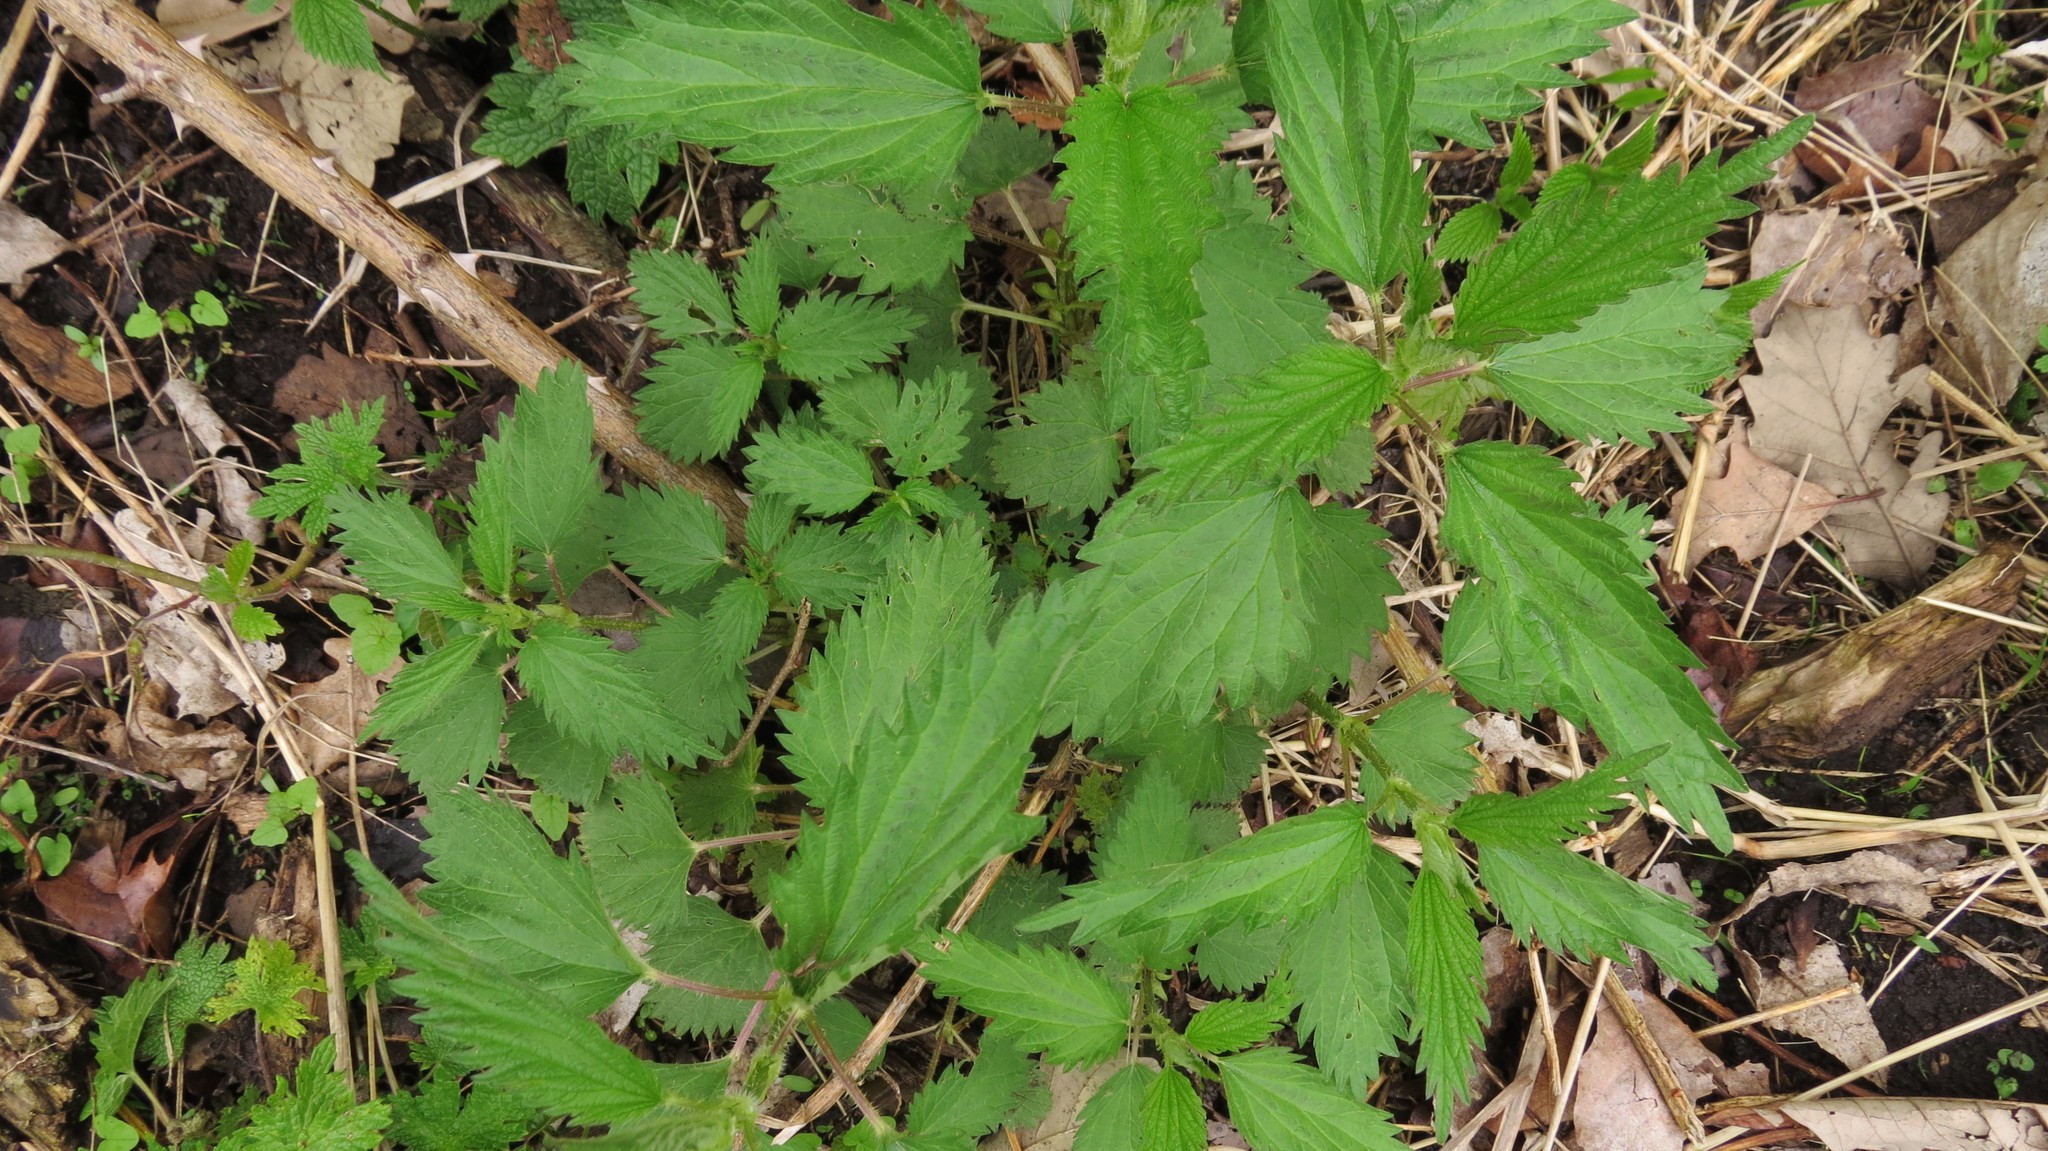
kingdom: Plantae
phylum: Tracheophyta
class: Magnoliopsida
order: Rosales
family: Urticaceae
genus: Urtica
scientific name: Urtica dioica
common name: Common nettle
